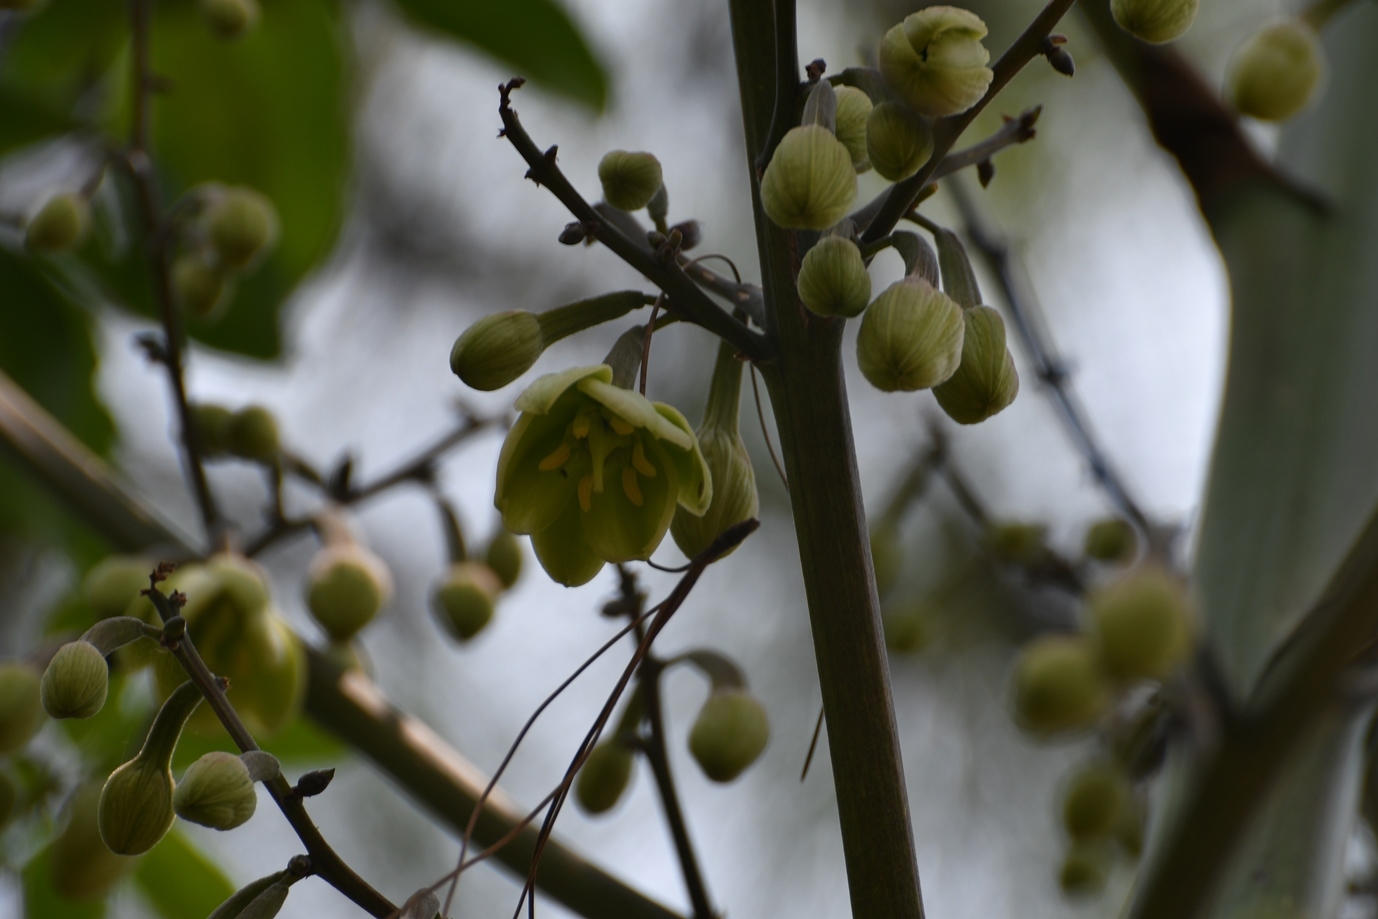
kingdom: Plantae
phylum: Tracheophyta
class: Liliopsida
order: Asparagales
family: Asparagaceae
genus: Furcraea
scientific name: Furcraea cabuya
